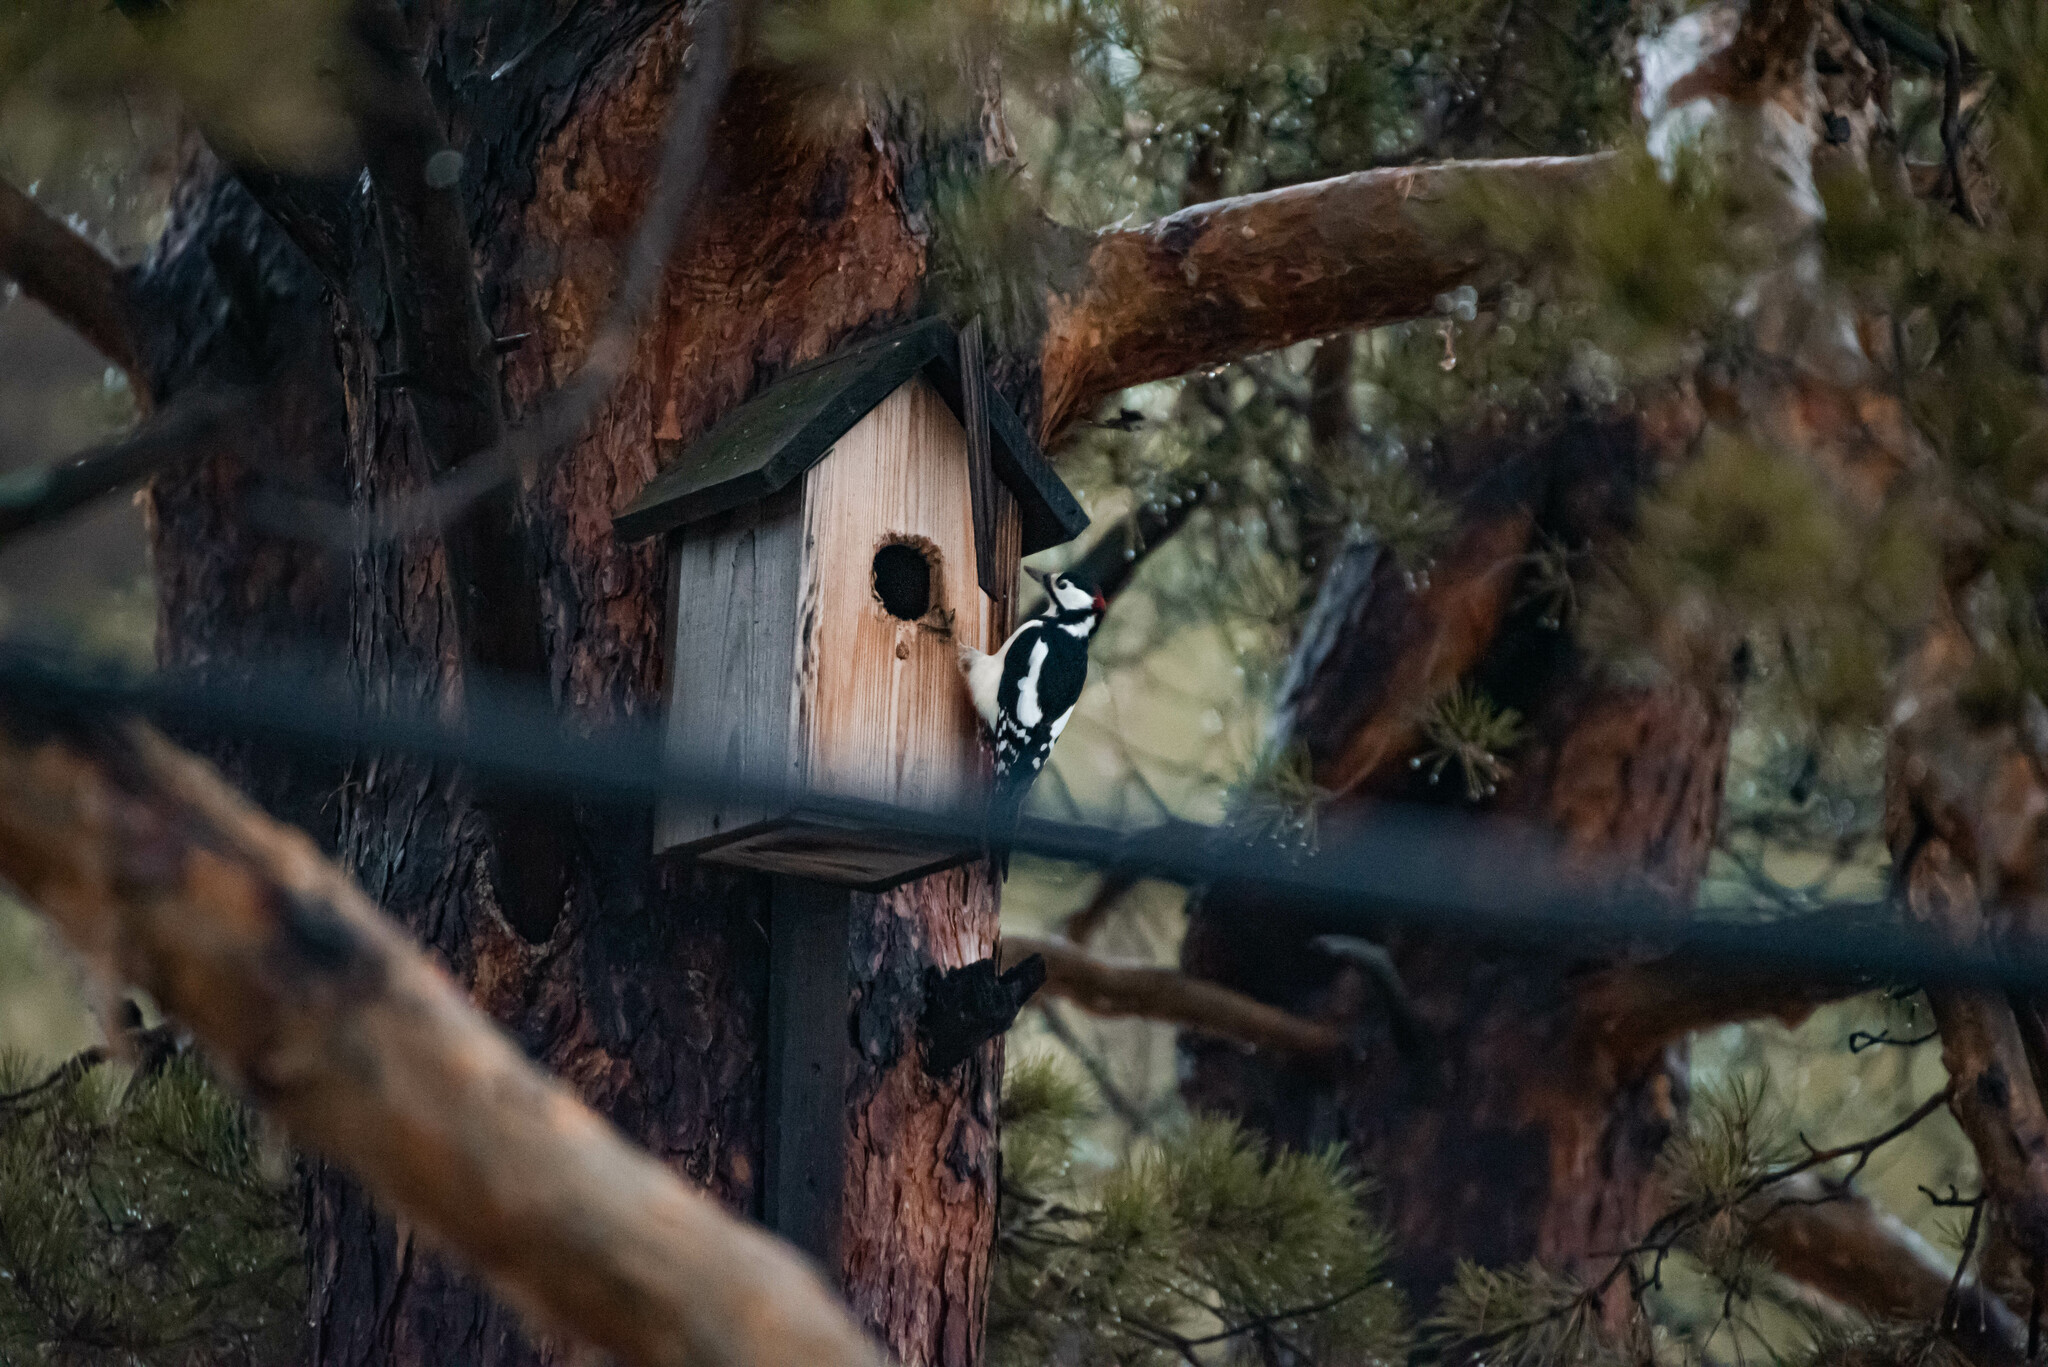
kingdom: Animalia
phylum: Chordata
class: Aves
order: Piciformes
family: Picidae
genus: Dendrocopos
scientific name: Dendrocopos major
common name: Great spotted woodpecker
